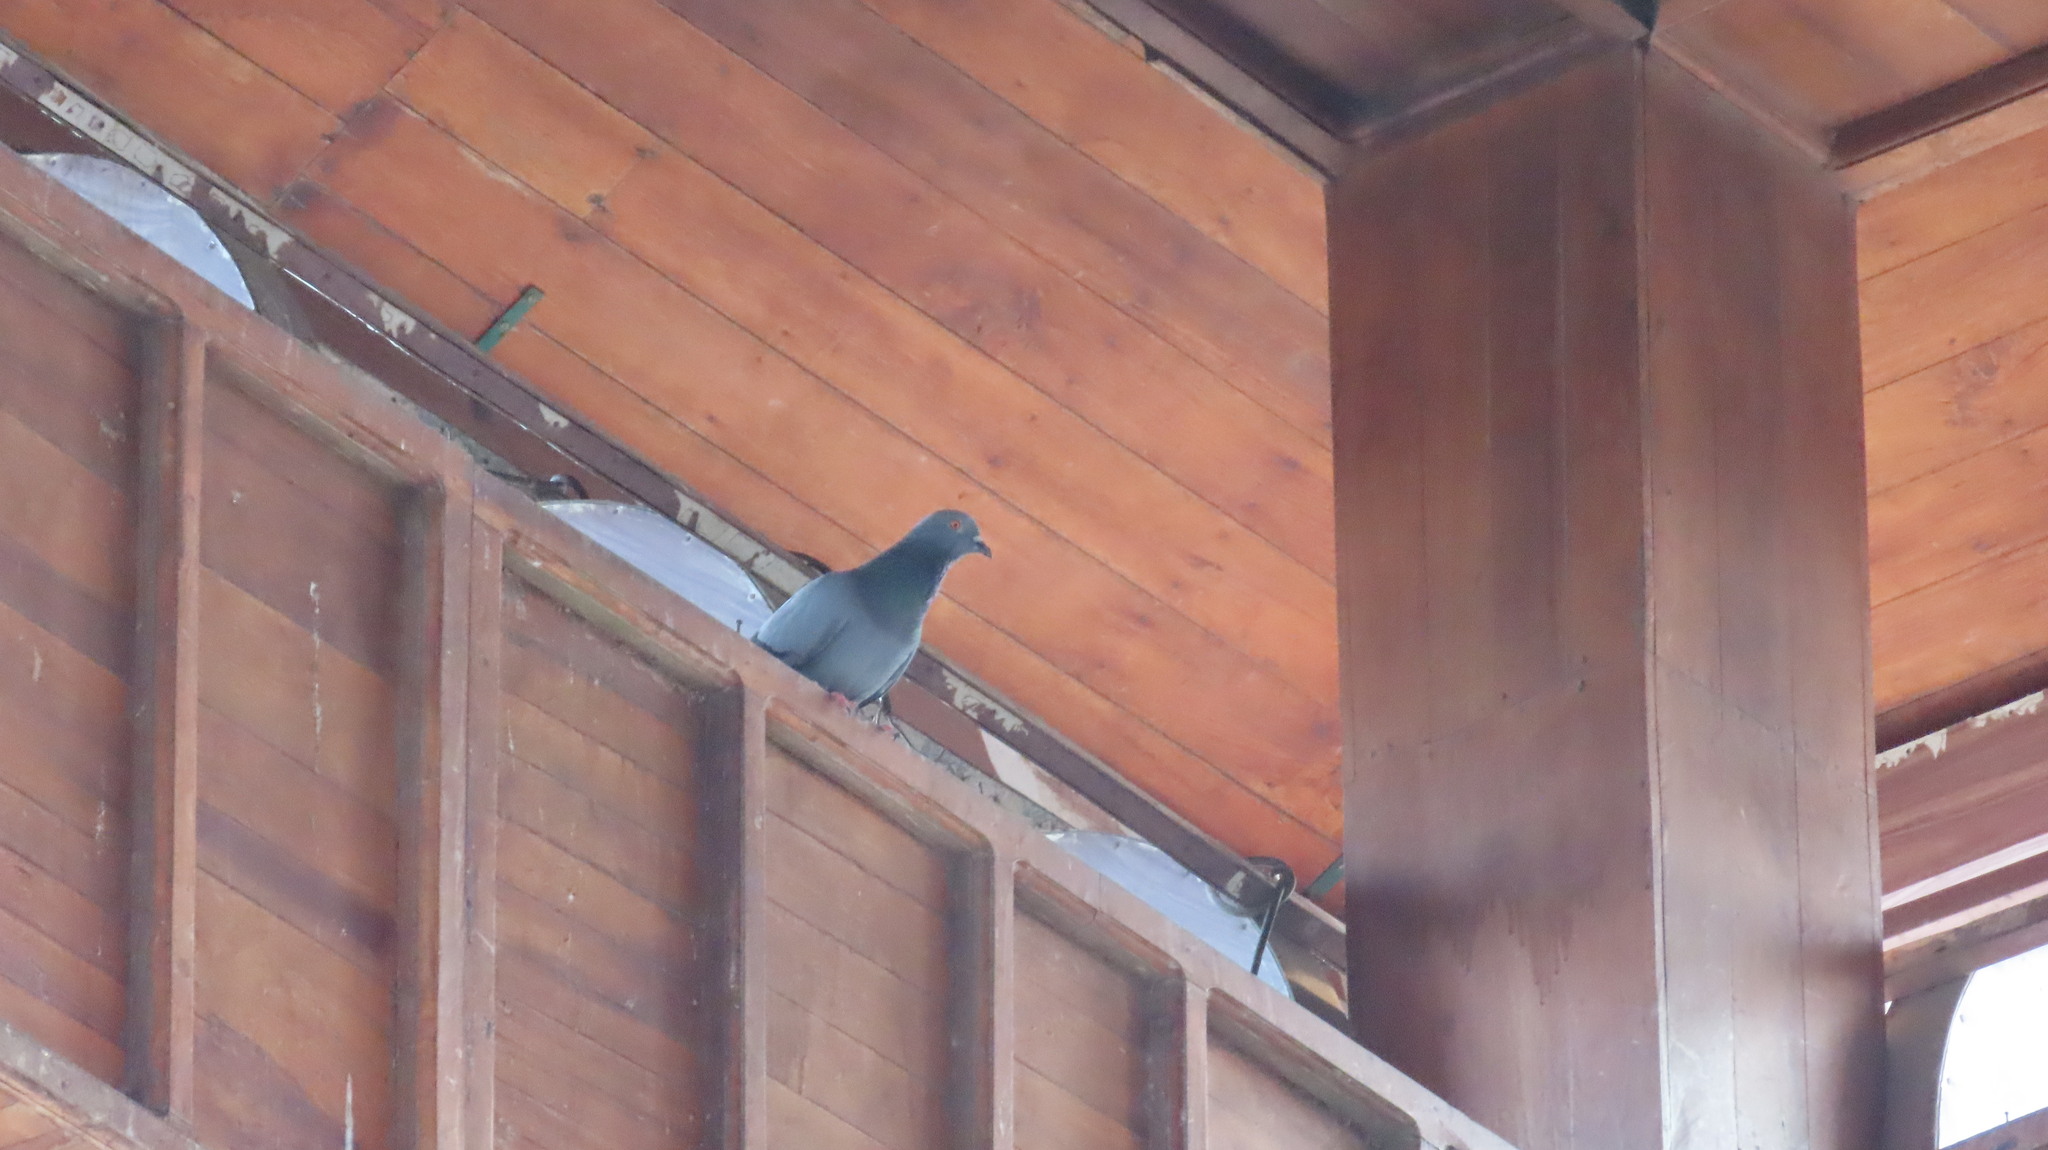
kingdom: Animalia
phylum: Chordata
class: Aves
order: Columbiformes
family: Columbidae
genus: Columba
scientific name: Columba livia
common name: Rock pigeon
